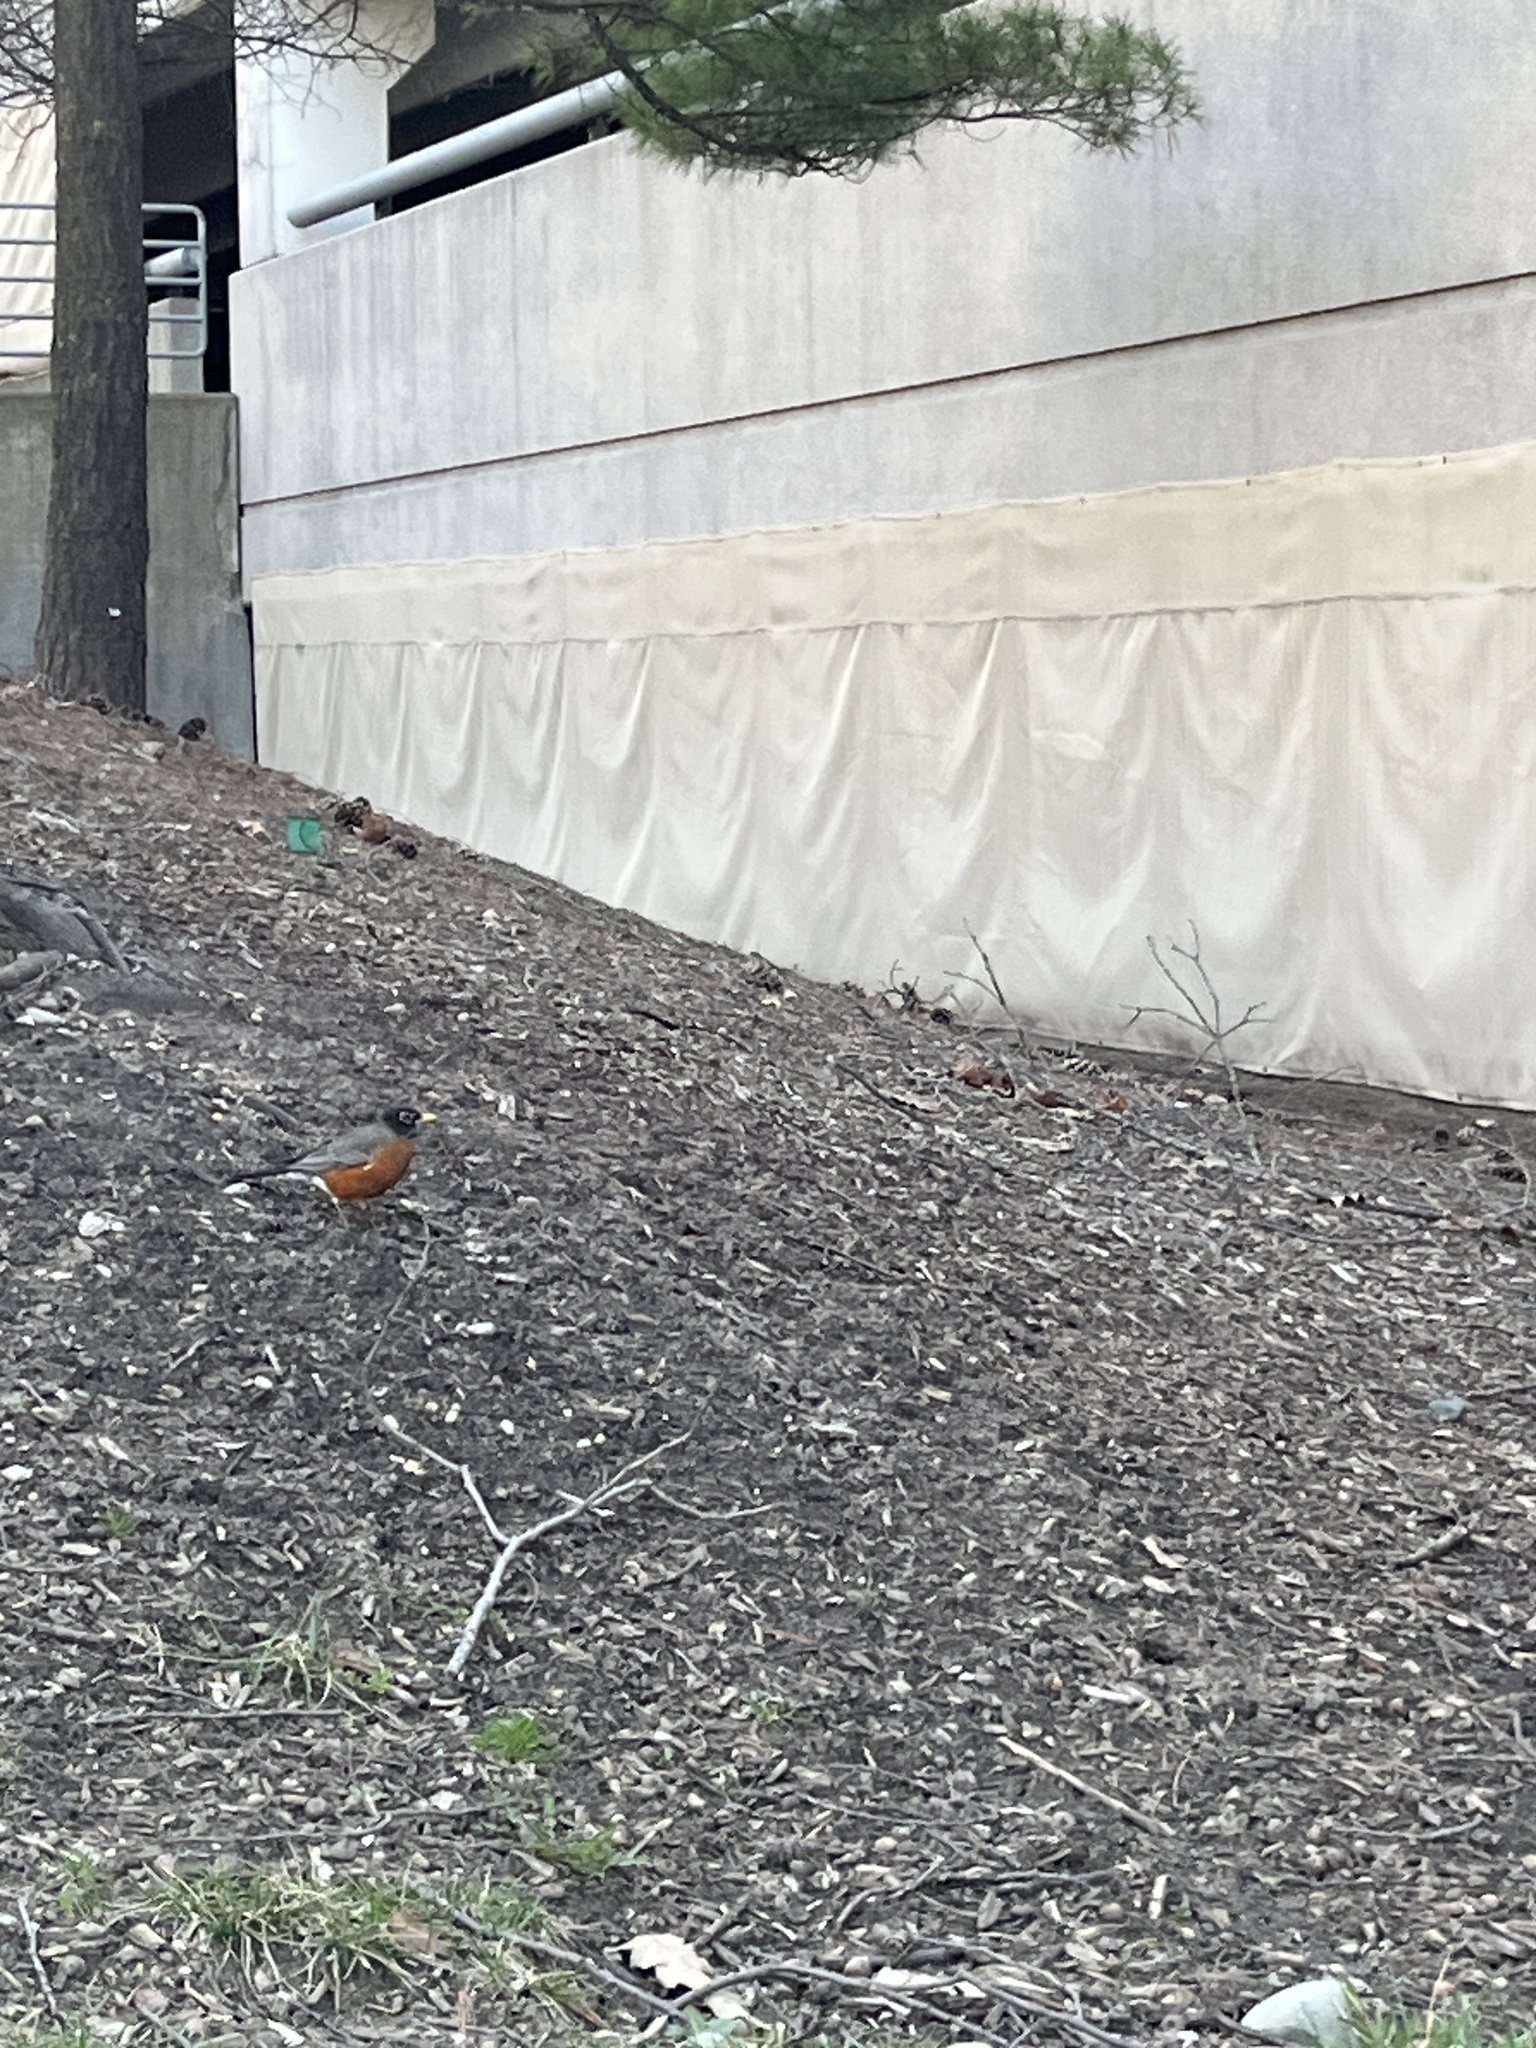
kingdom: Animalia
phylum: Chordata
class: Aves
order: Passeriformes
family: Turdidae
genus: Turdus
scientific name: Turdus migratorius
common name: American robin
